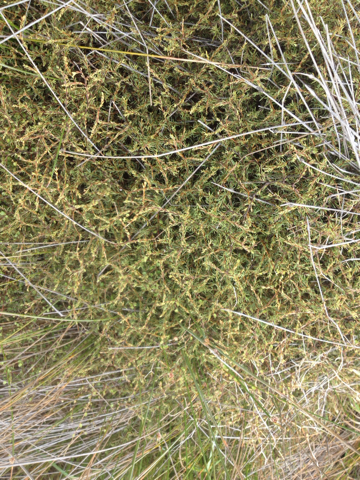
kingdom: Plantae
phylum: Tracheophyta
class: Magnoliopsida
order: Gentianales
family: Rubiaceae
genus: Coprosma
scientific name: Coprosma acerosa
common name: Sand coprosma
